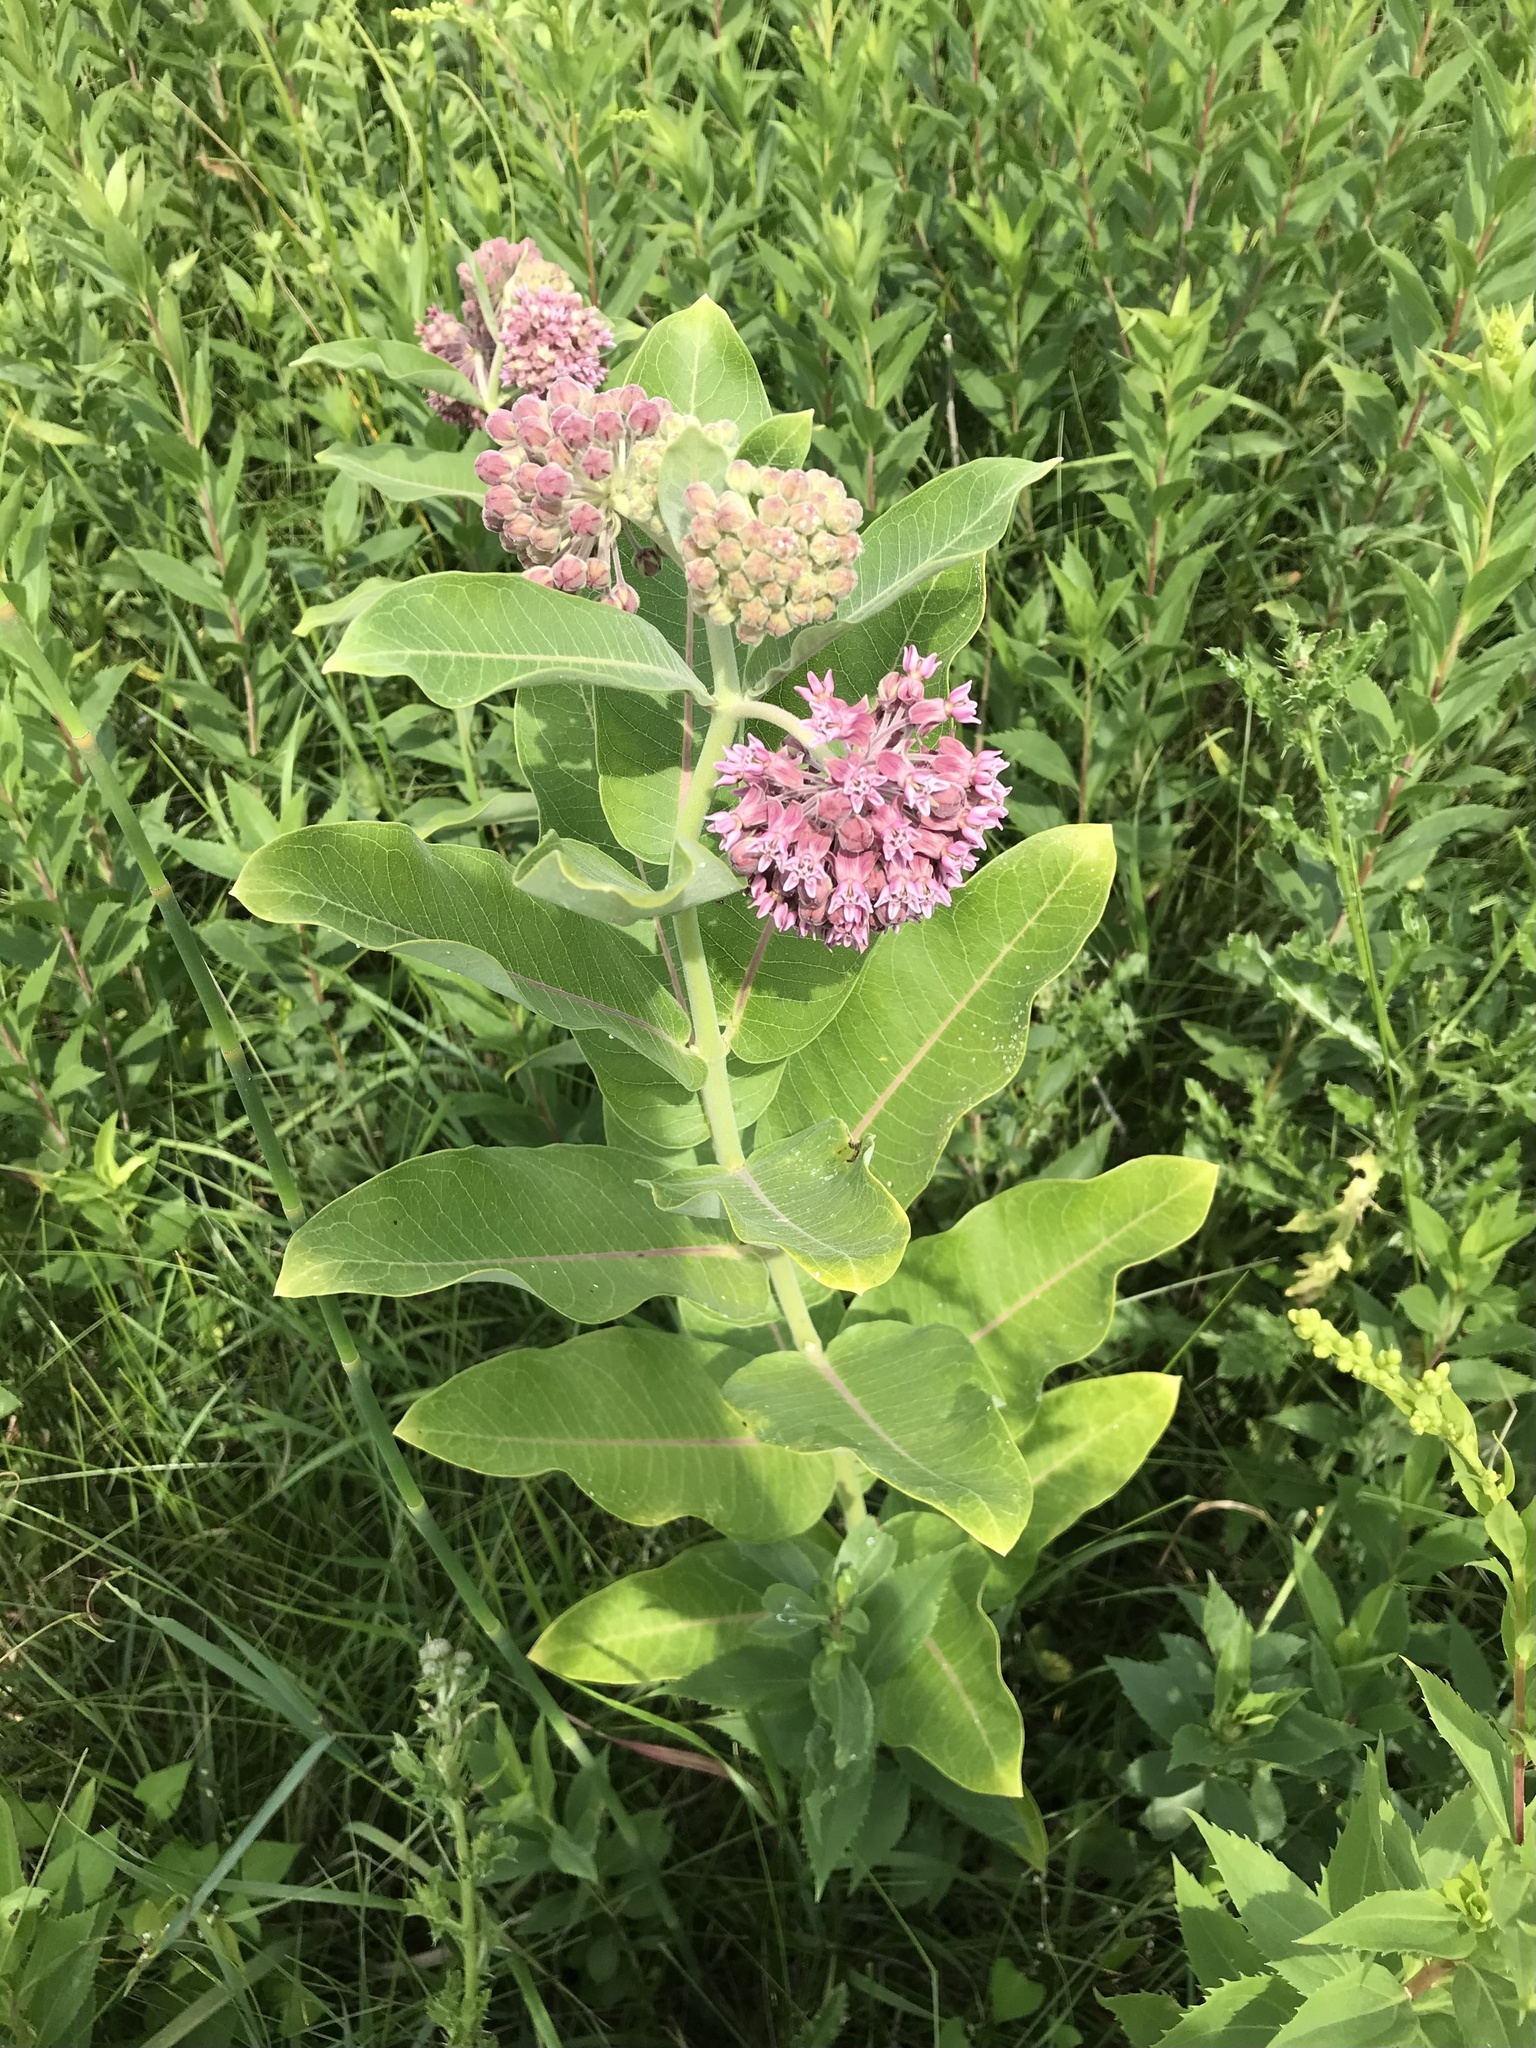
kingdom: Plantae
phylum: Tracheophyta
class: Magnoliopsida
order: Gentianales
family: Apocynaceae
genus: Asclepias
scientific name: Asclepias syriaca
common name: Common milkweed
